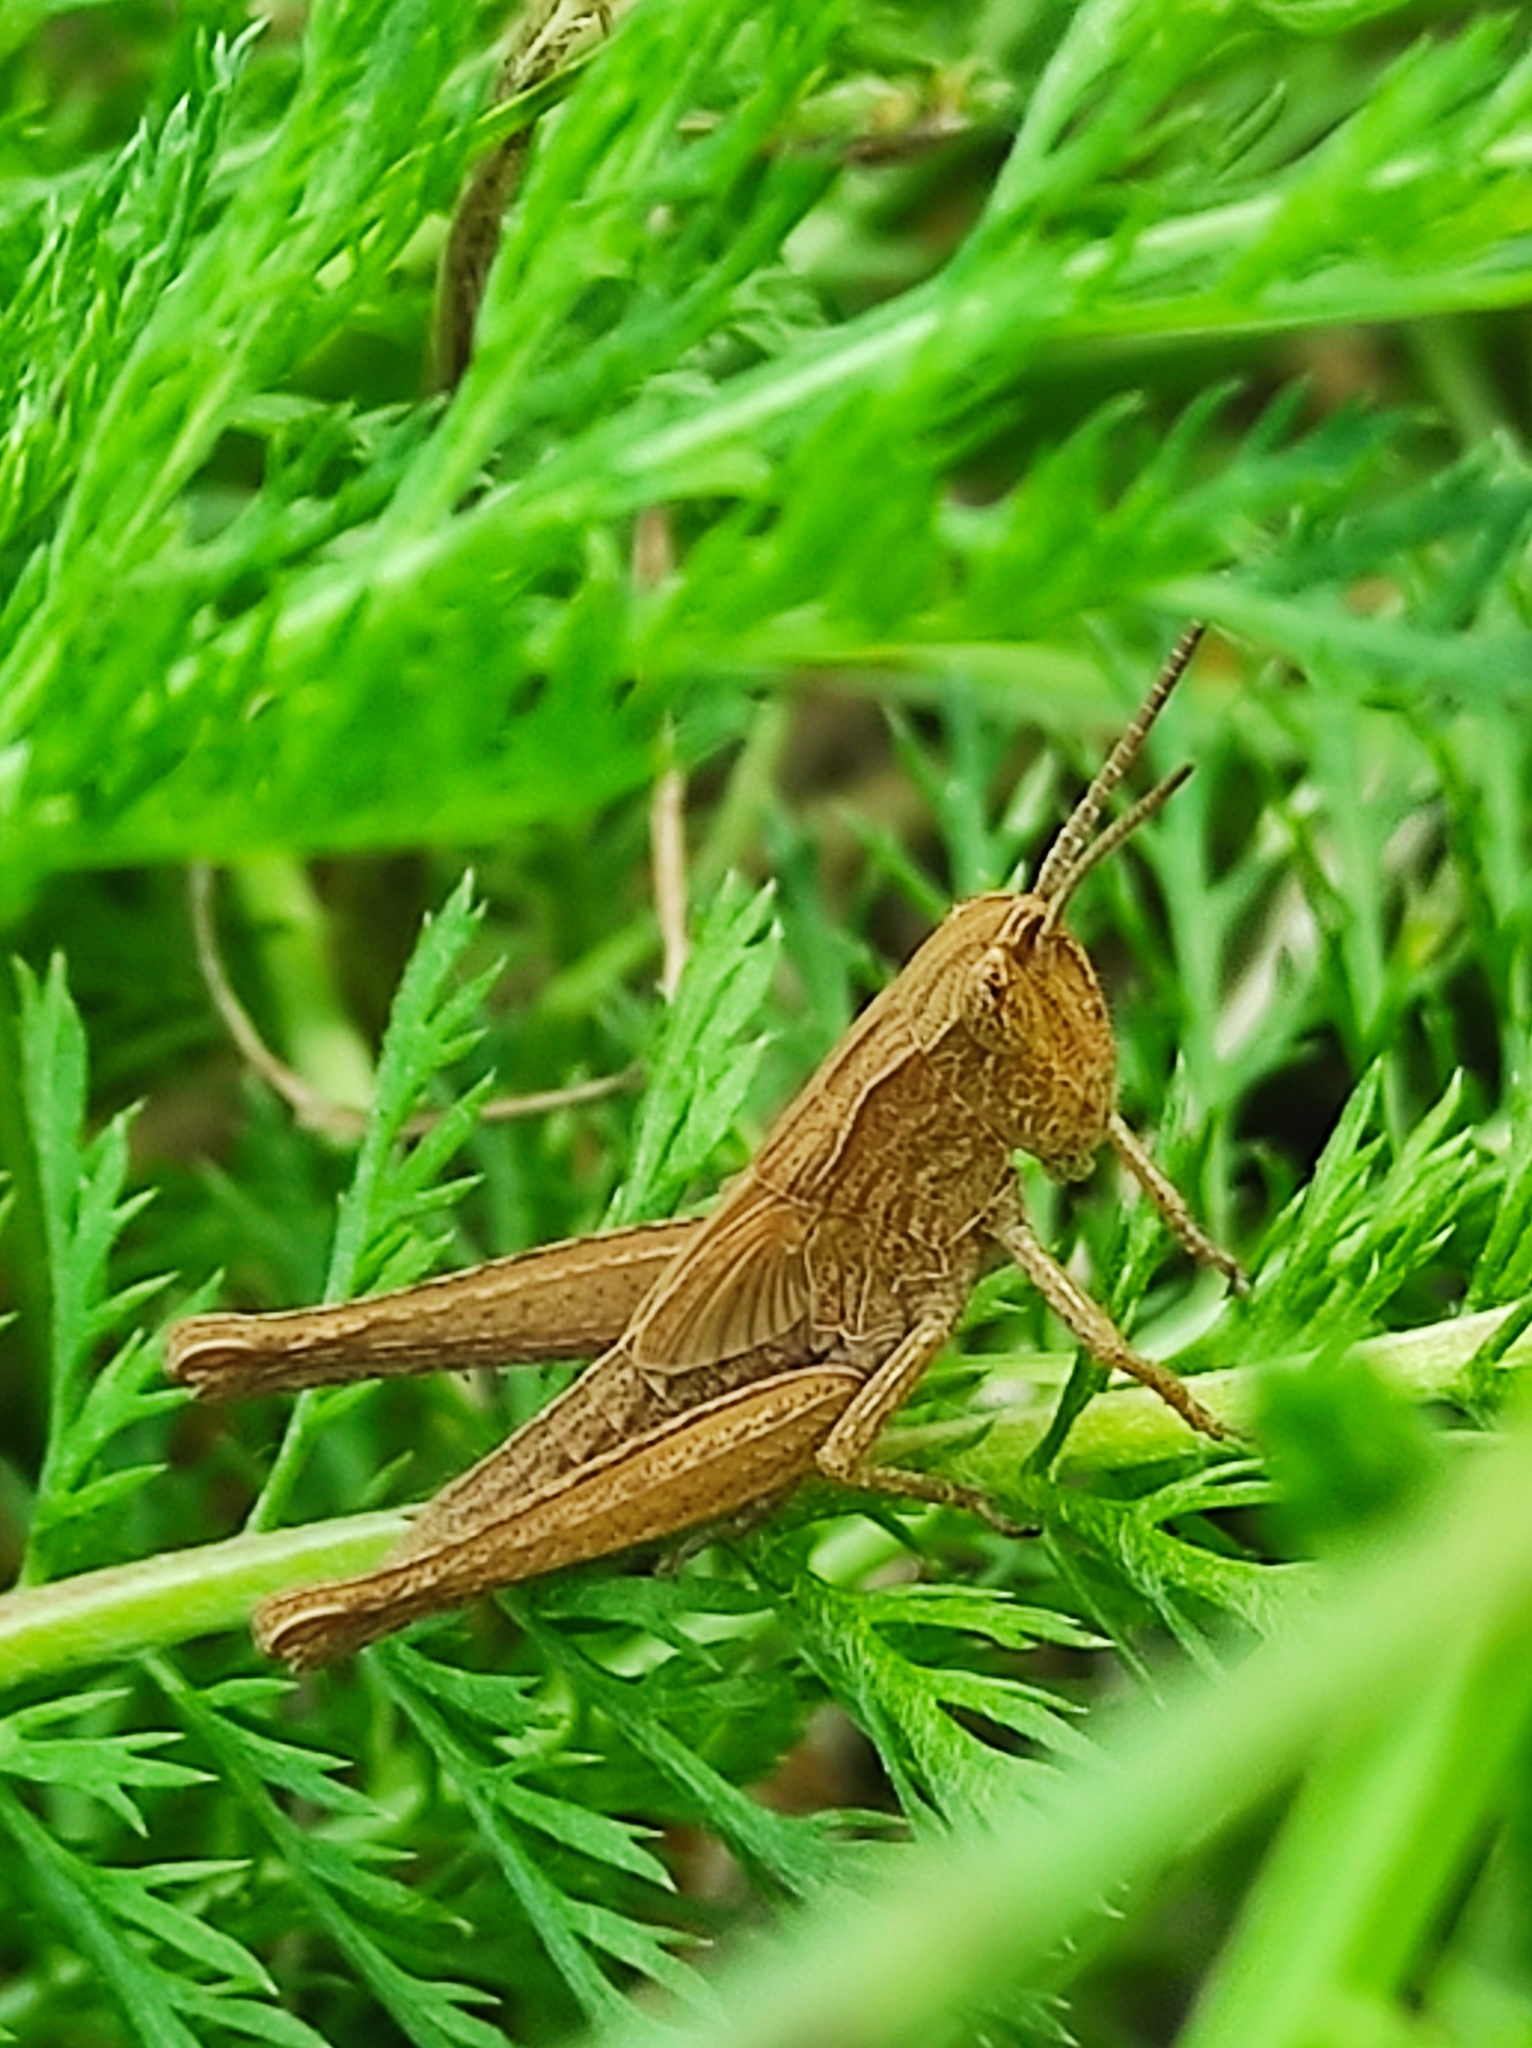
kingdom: Animalia
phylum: Arthropoda
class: Insecta
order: Orthoptera
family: Acrididae
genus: Chorthippus
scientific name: Chorthippus dorsatus
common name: Steppe grasshopper
